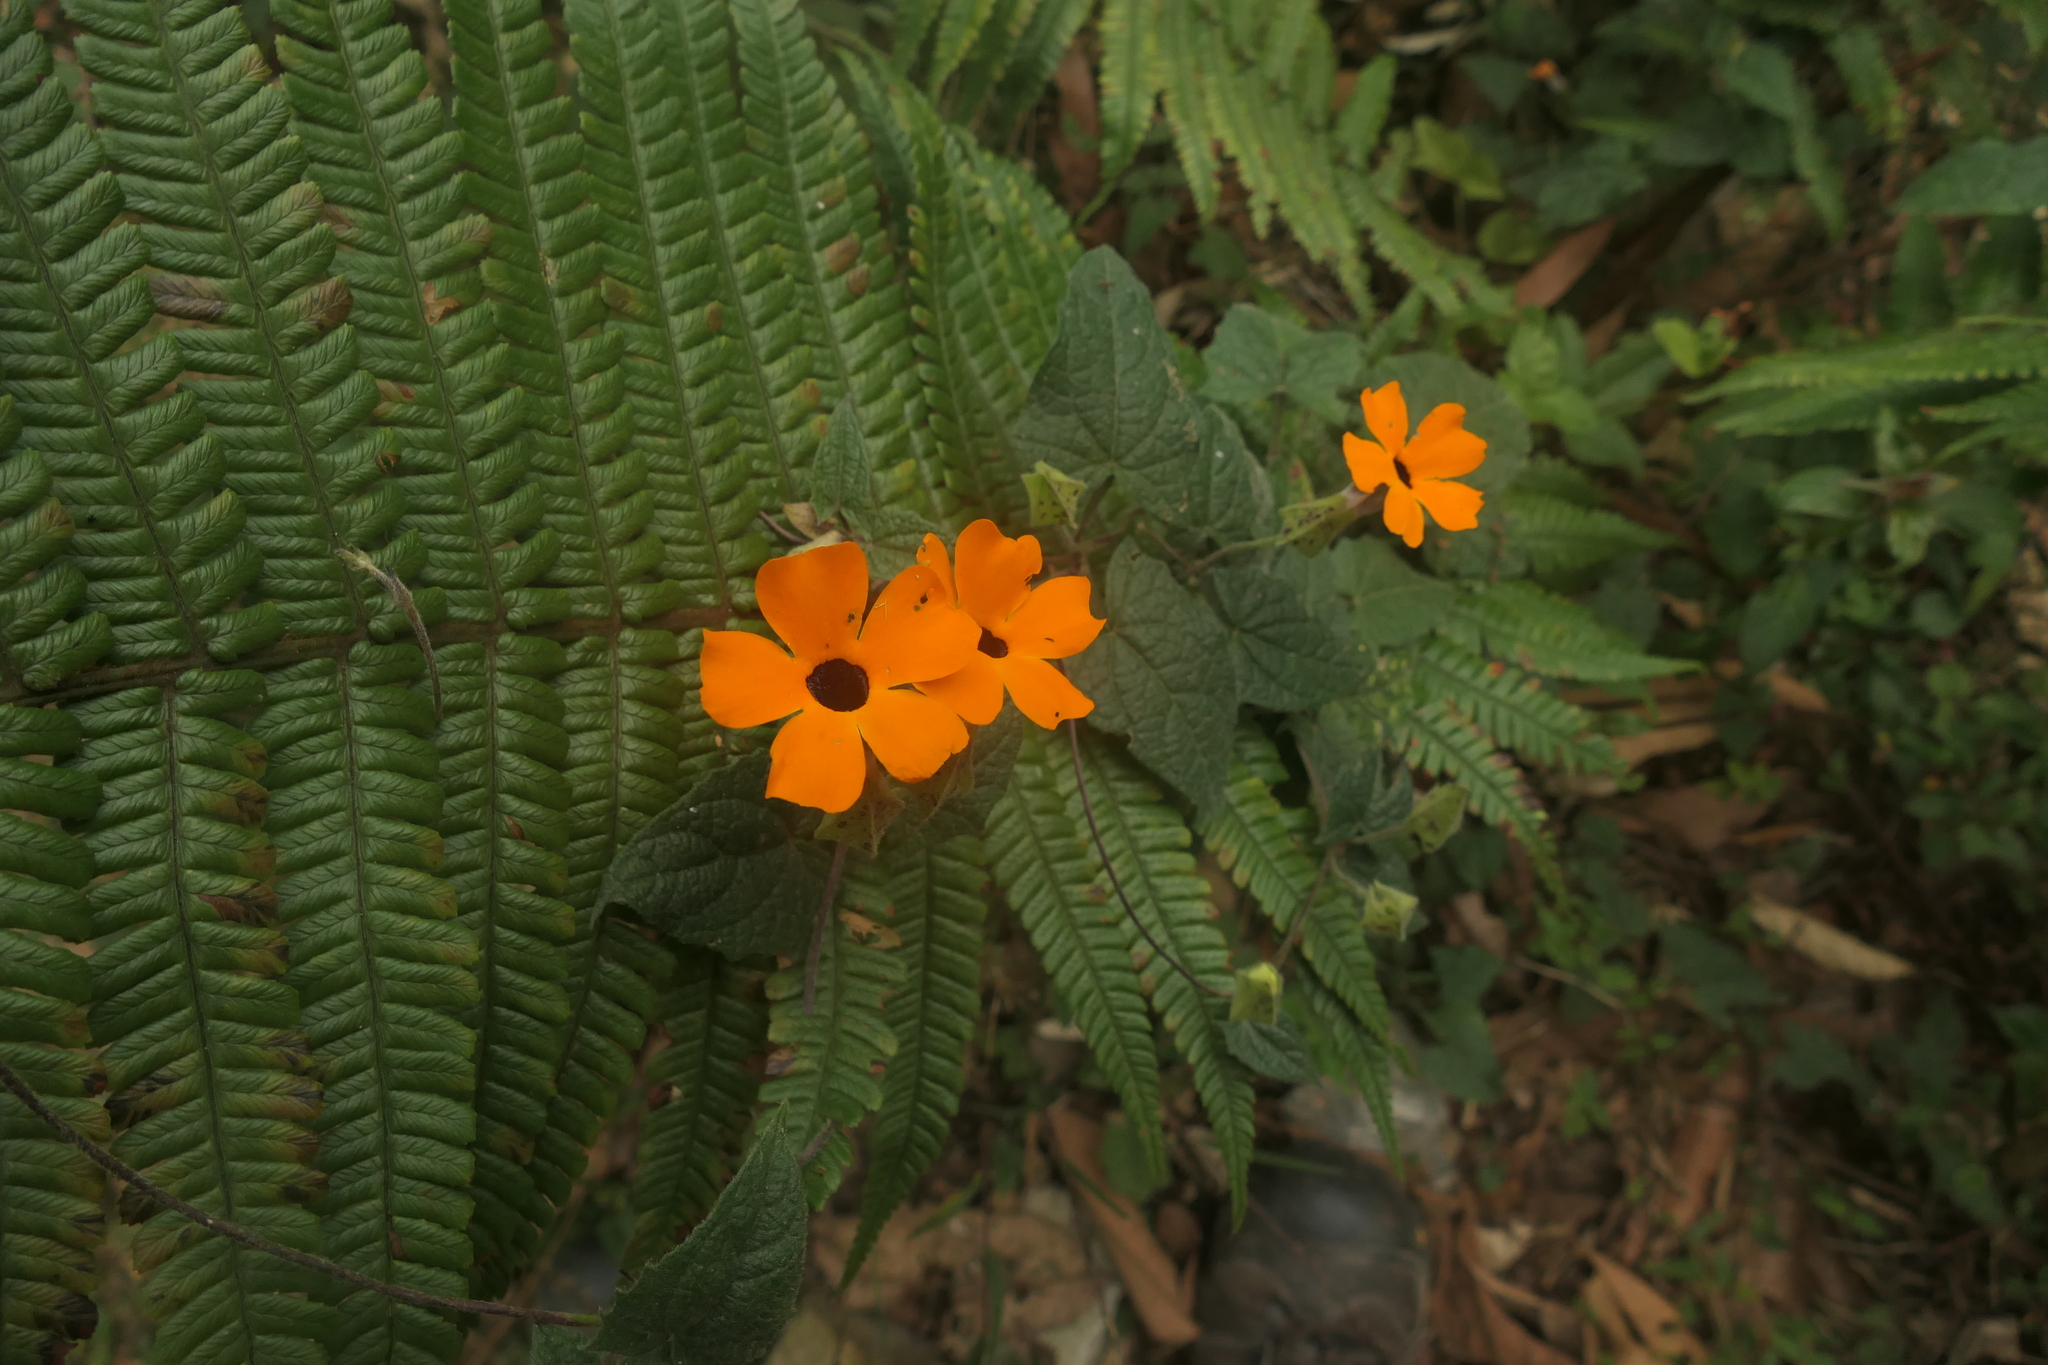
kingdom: Plantae
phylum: Tracheophyta
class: Magnoliopsida
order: Lamiales
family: Acanthaceae
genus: Thunbergia
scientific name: Thunbergia alata
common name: Blackeyed susan vine
